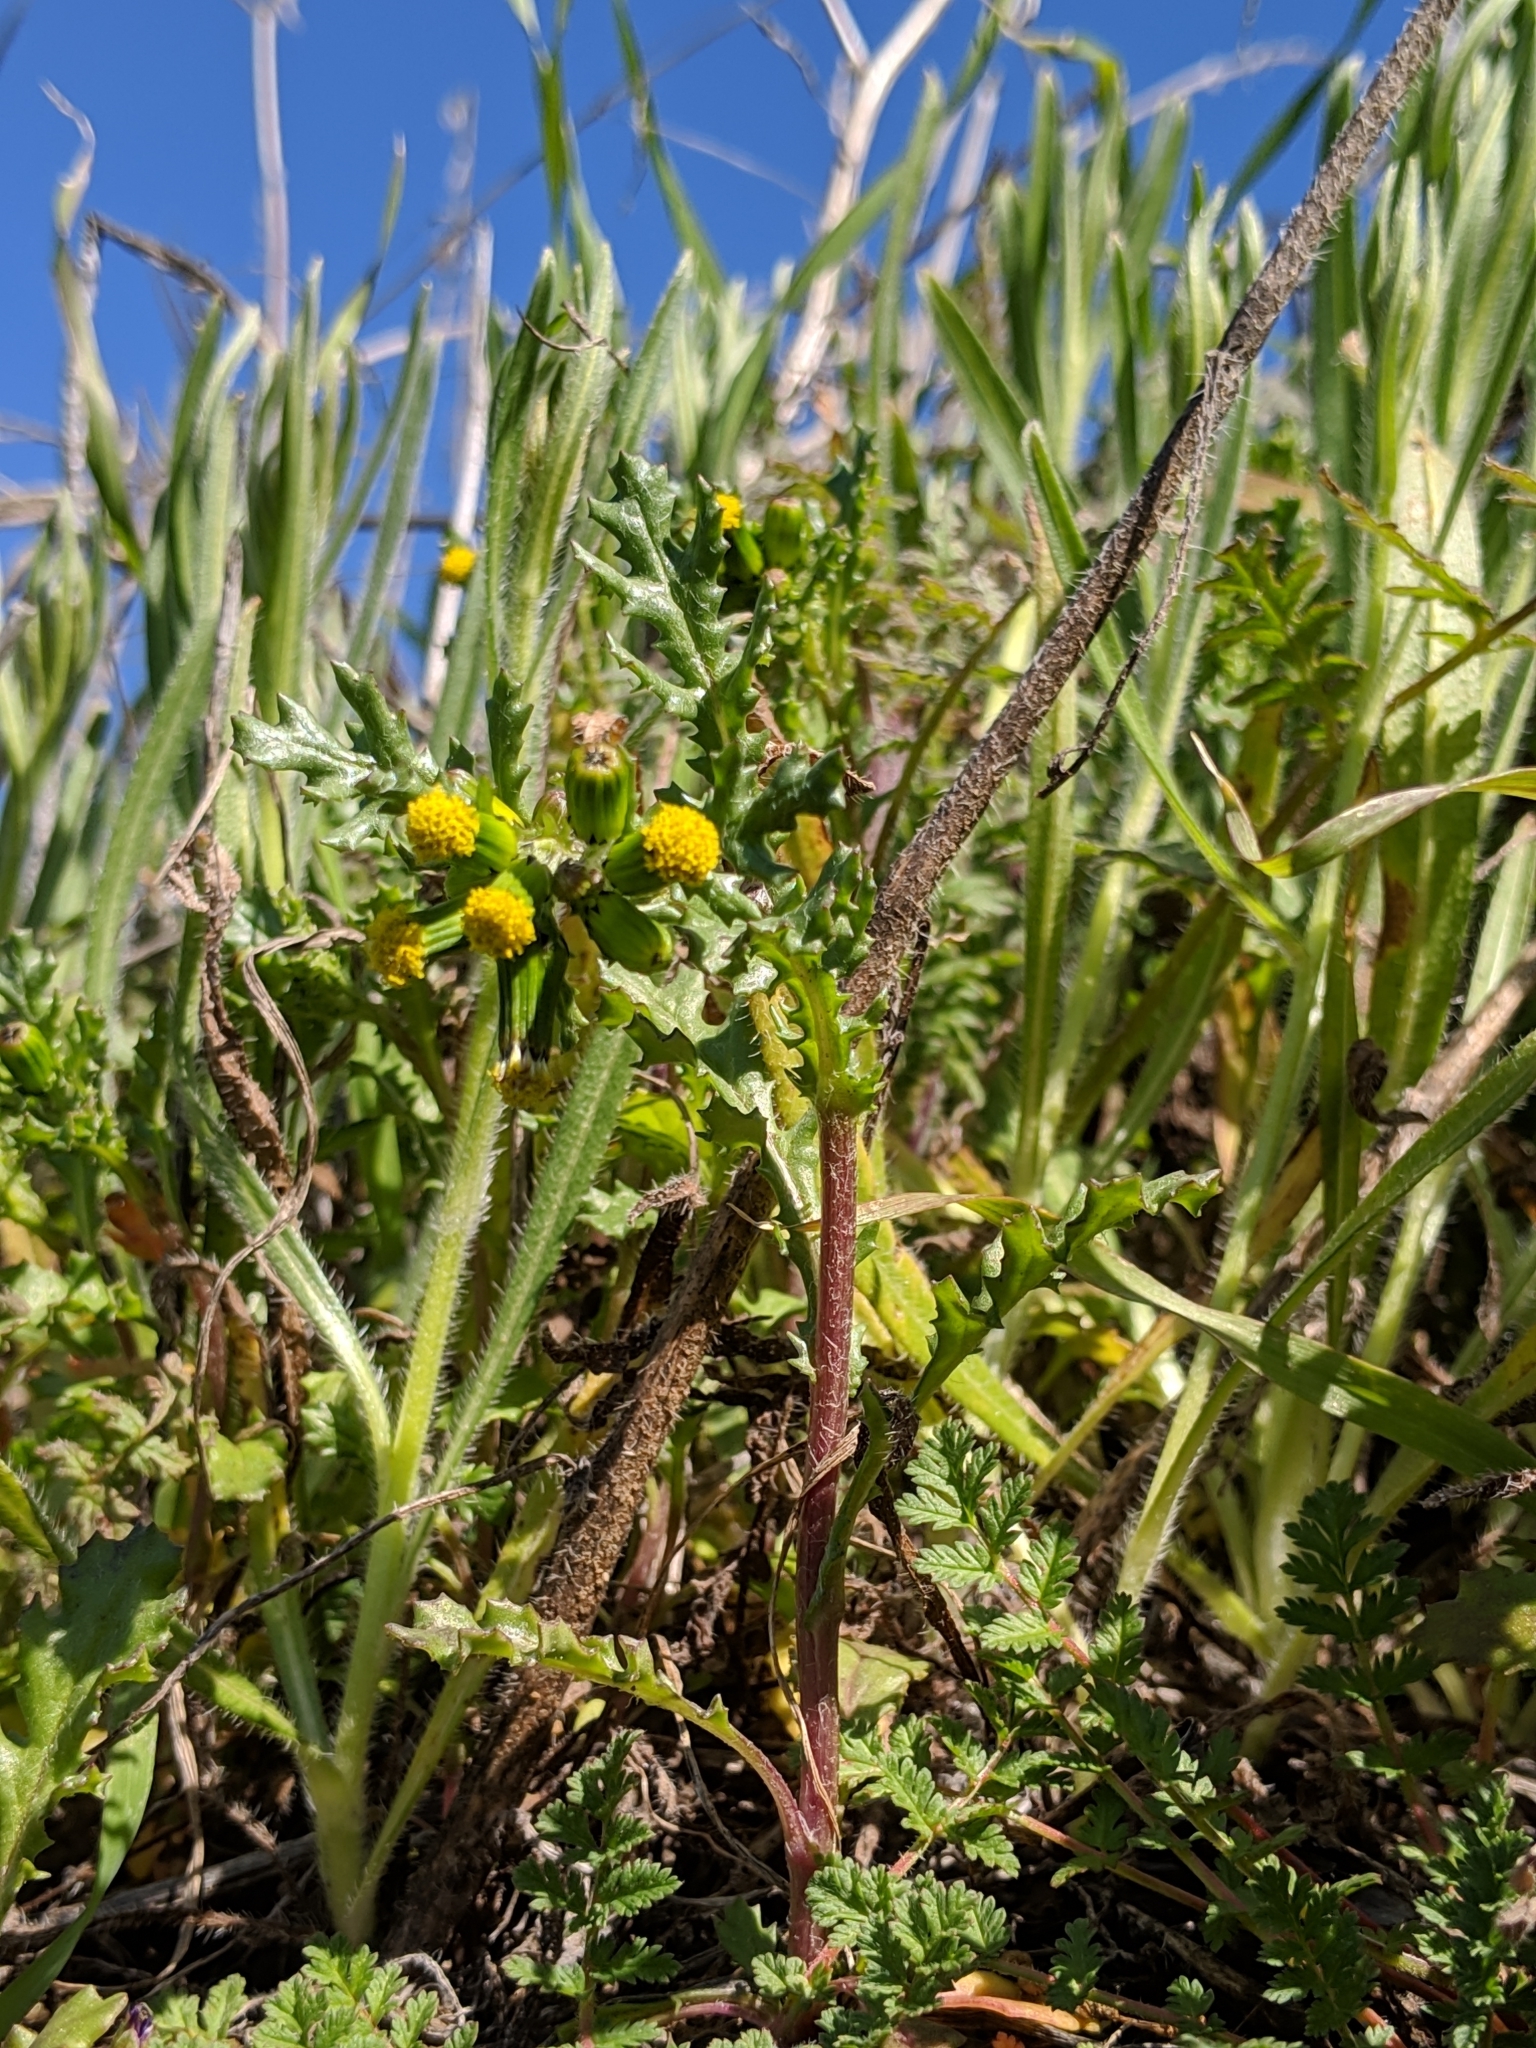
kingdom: Plantae
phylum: Tracheophyta
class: Magnoliopsida
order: Asterales
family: Asteraceae
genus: Senecio
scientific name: Senecio vulgaris
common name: Old-man-in-the-spring
